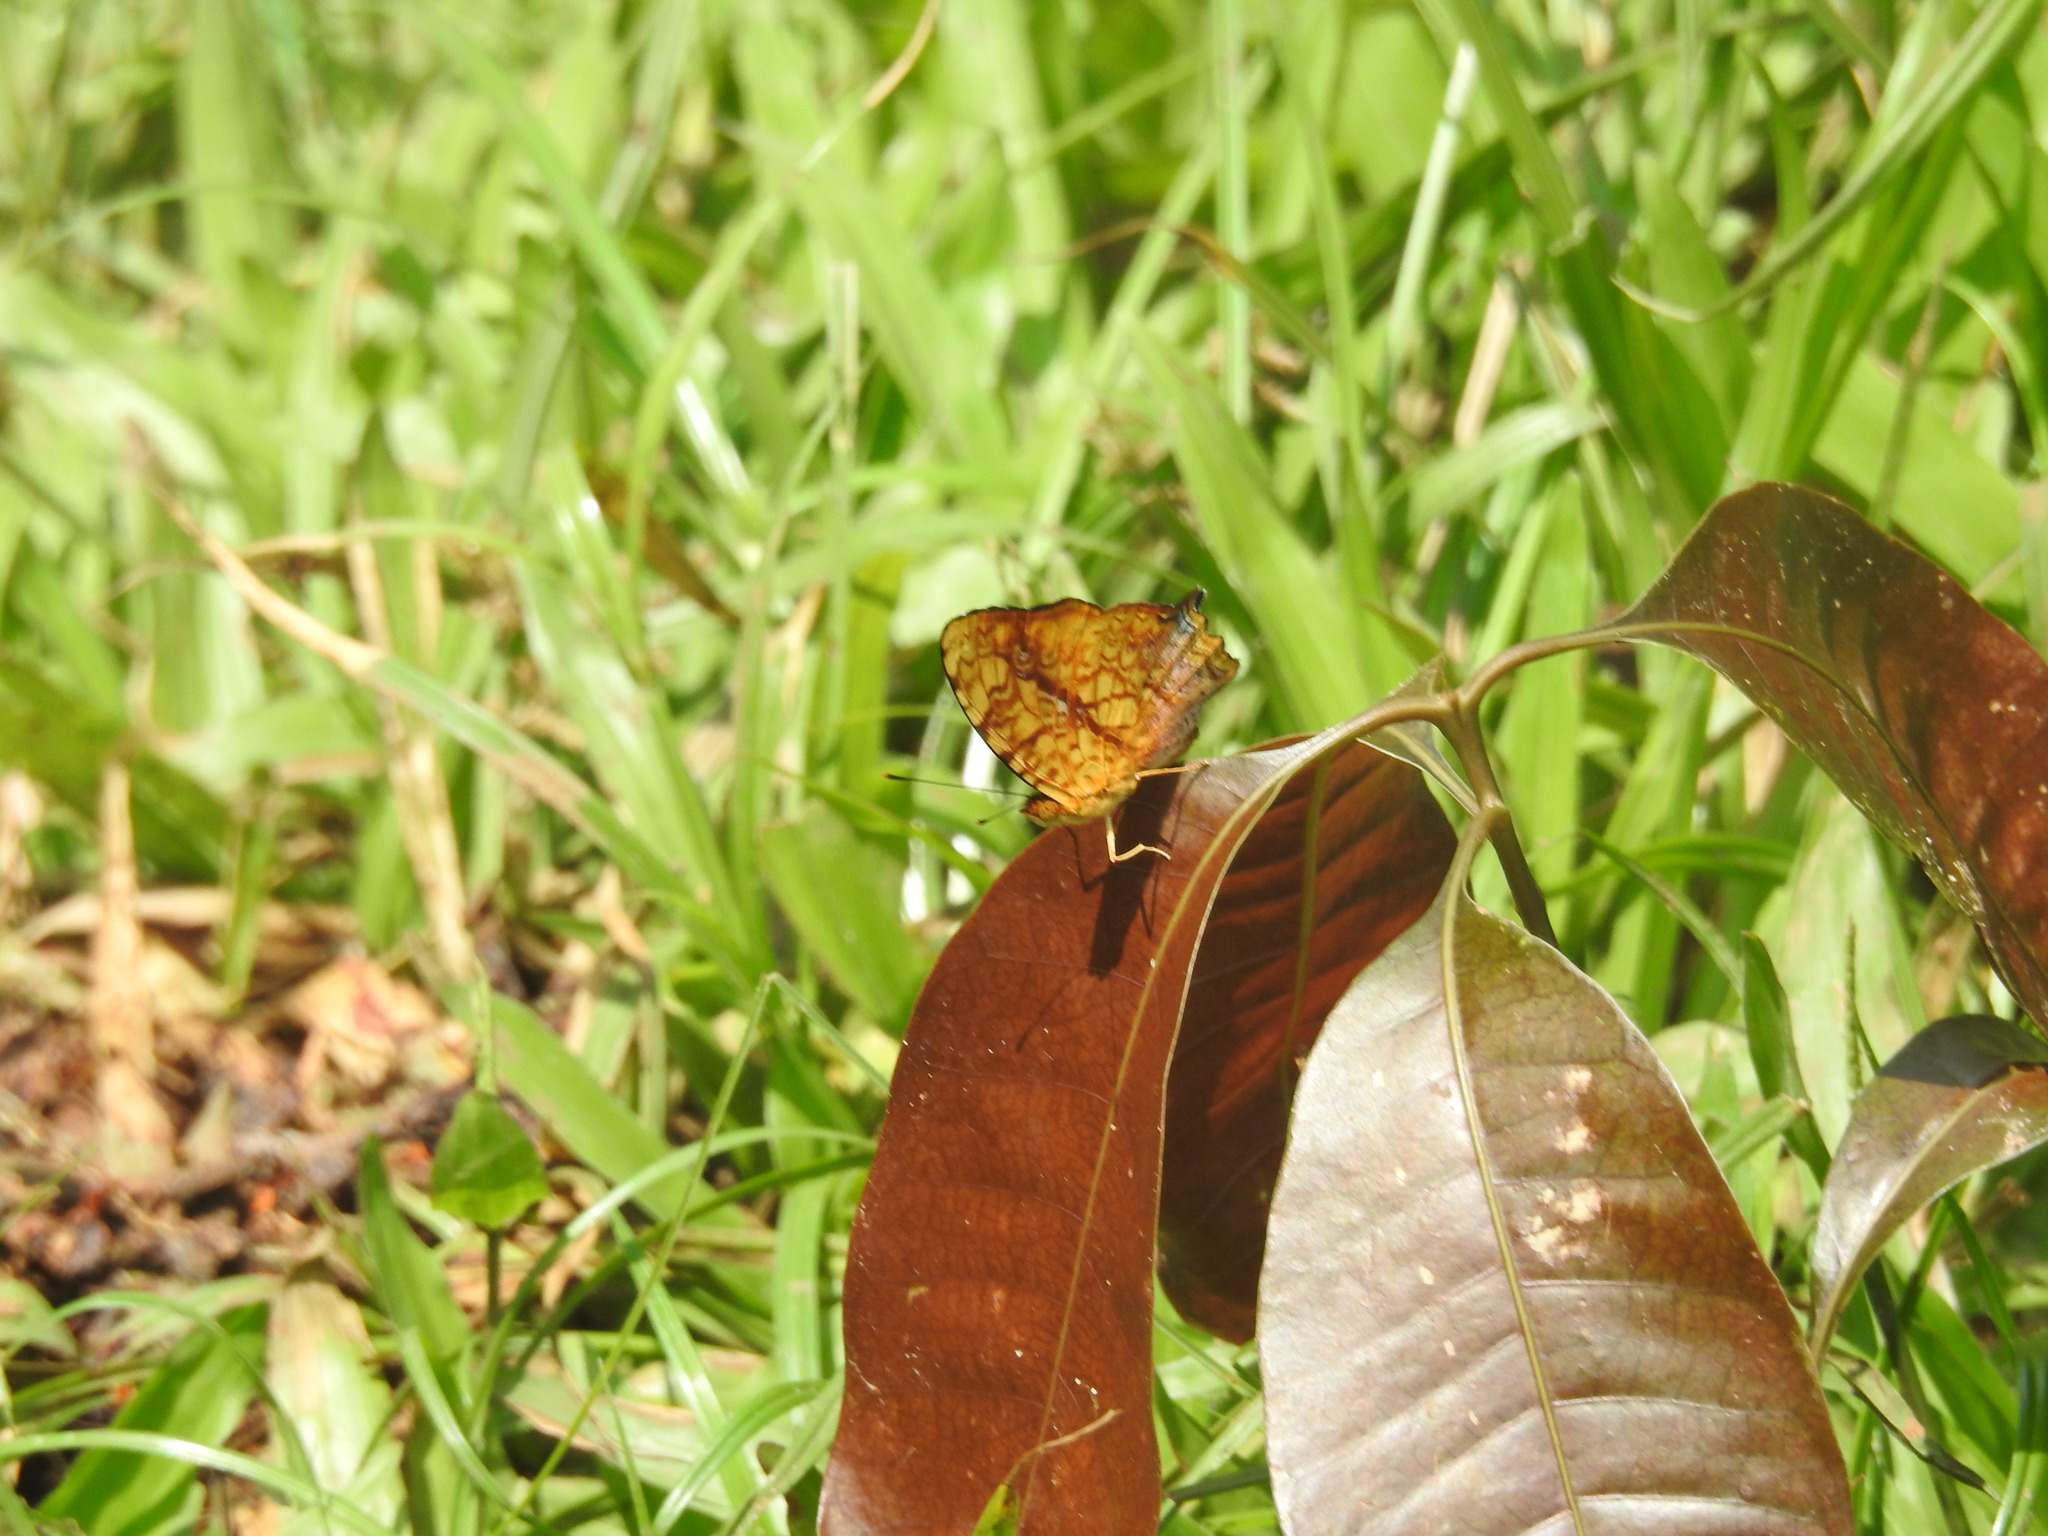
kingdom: Animalia
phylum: Arthropoda
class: Insecta
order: Lepidoptera
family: Nymphalidae
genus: Symbrenthia
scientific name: Symbrenthia hypselis
